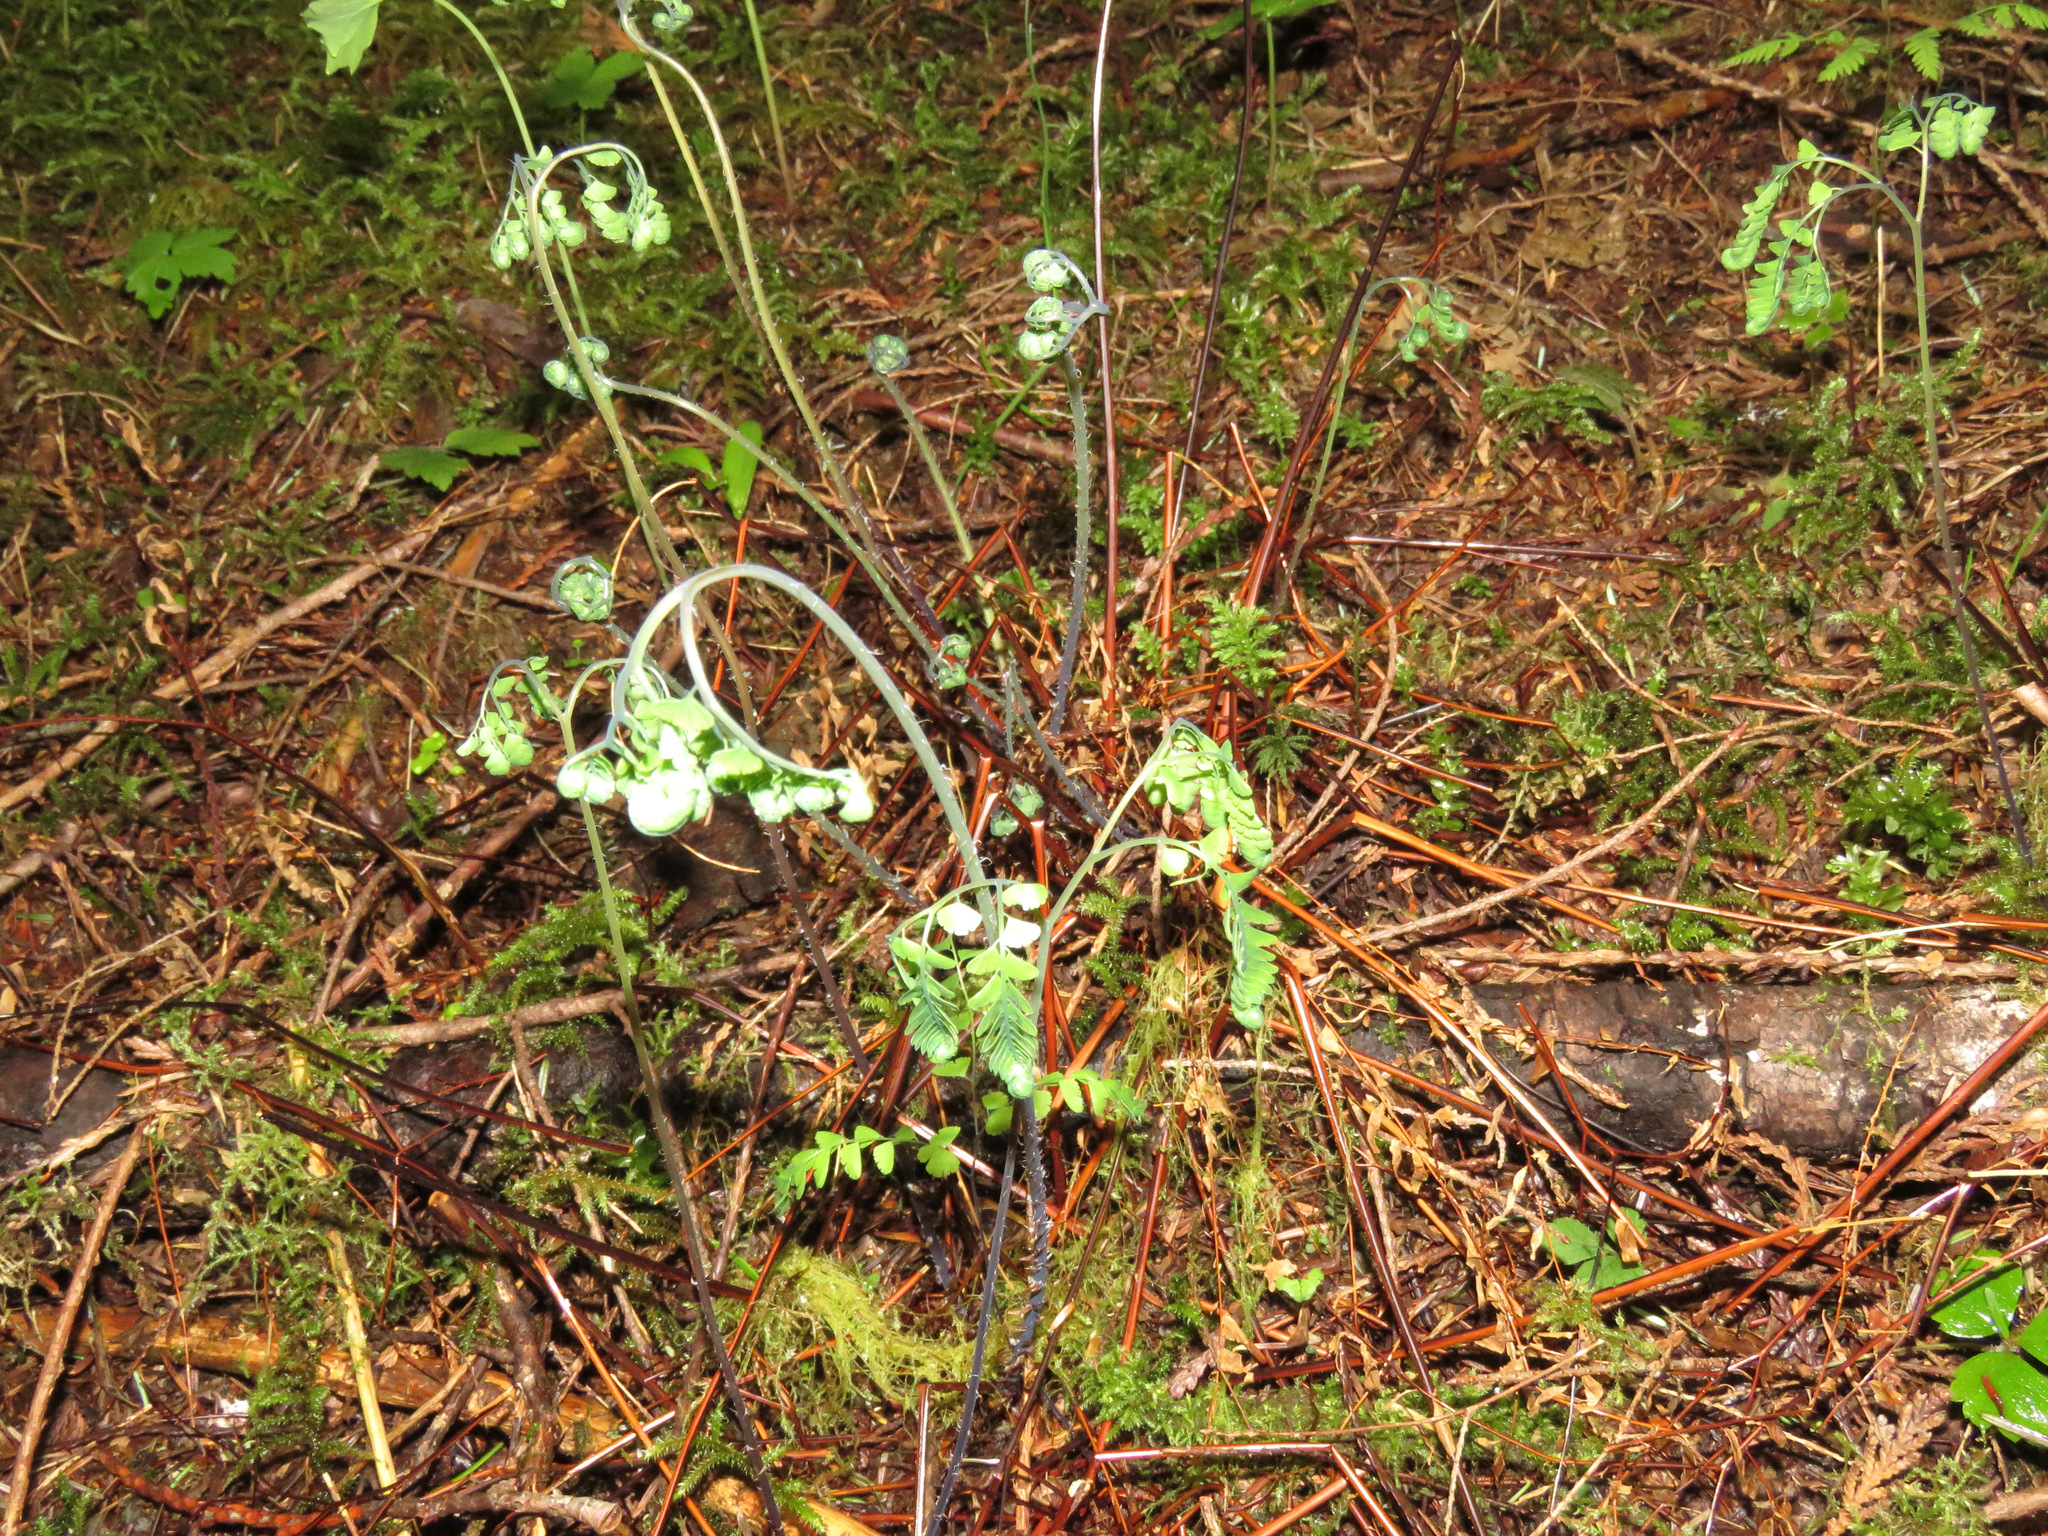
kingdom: Plantae
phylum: Tracheophyta
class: Polypodiopsida
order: Polypodiales
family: Pteridaceae
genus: Adiantum
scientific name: Adiantum aleuticum
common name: Aleutian maidenhair fern
